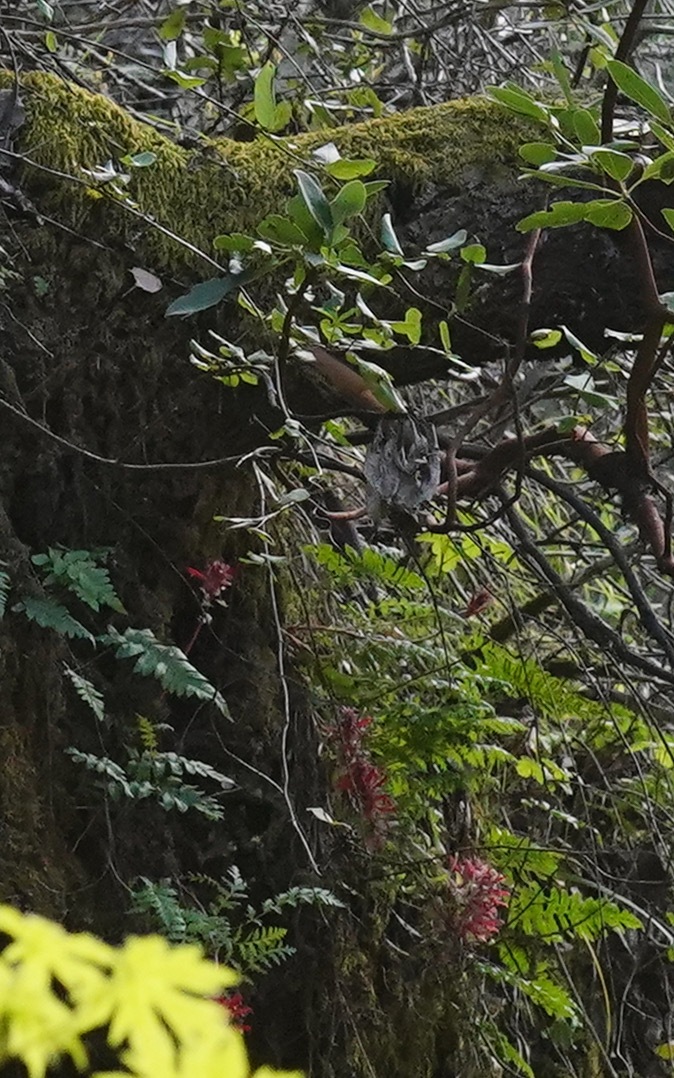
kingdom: Plantae
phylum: Tracheophyta
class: Magnoliopsida
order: Lamiales
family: Orobanchaceae
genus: Pedicularis
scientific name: Pedicularis densiflora
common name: Indian warrior
